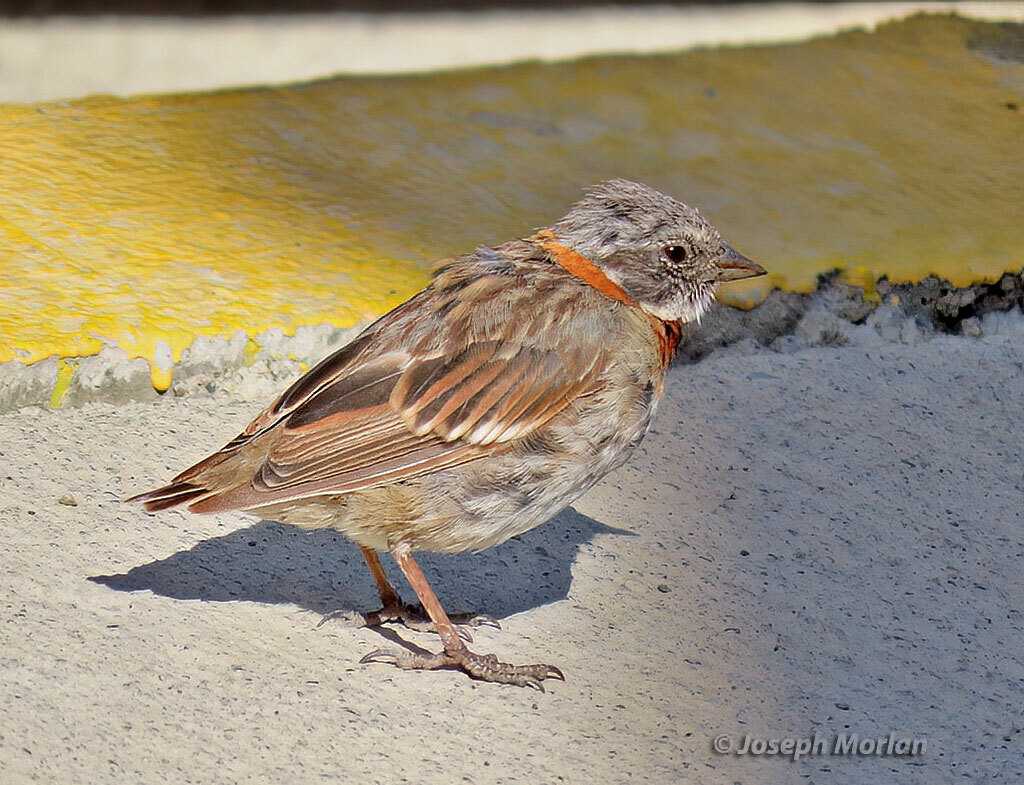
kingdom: Animalia
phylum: Chordata
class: Aves
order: Passeriformes
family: Passerellidae
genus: Zonotrichia
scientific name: Zonotrichia capensis
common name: Rufous-collared sparrow
